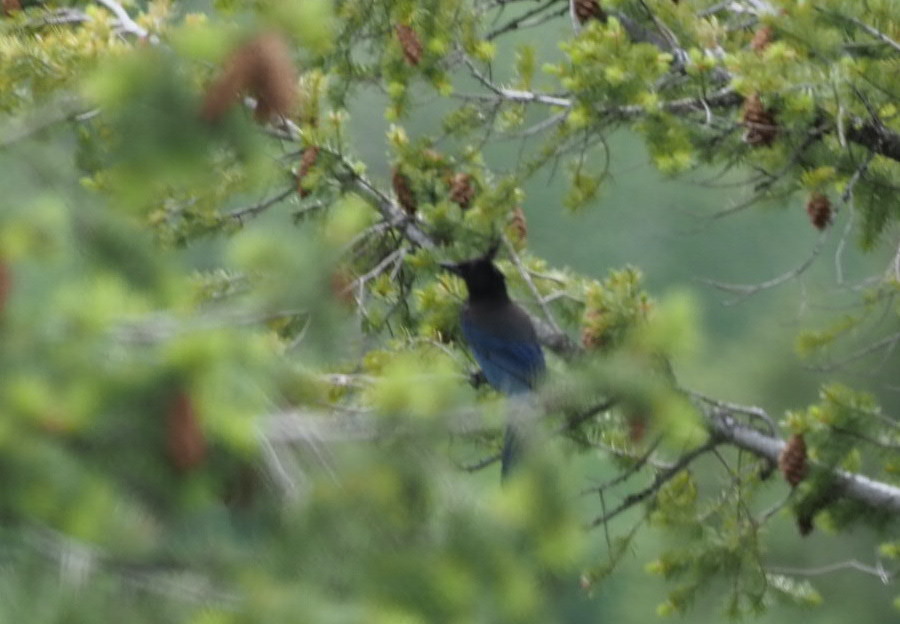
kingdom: Animalia
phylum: Chordata
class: Aves
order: Passeriformes
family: Corvidae
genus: Cyanocitta
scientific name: Cyanocitta stelleri
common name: Steller's jay
